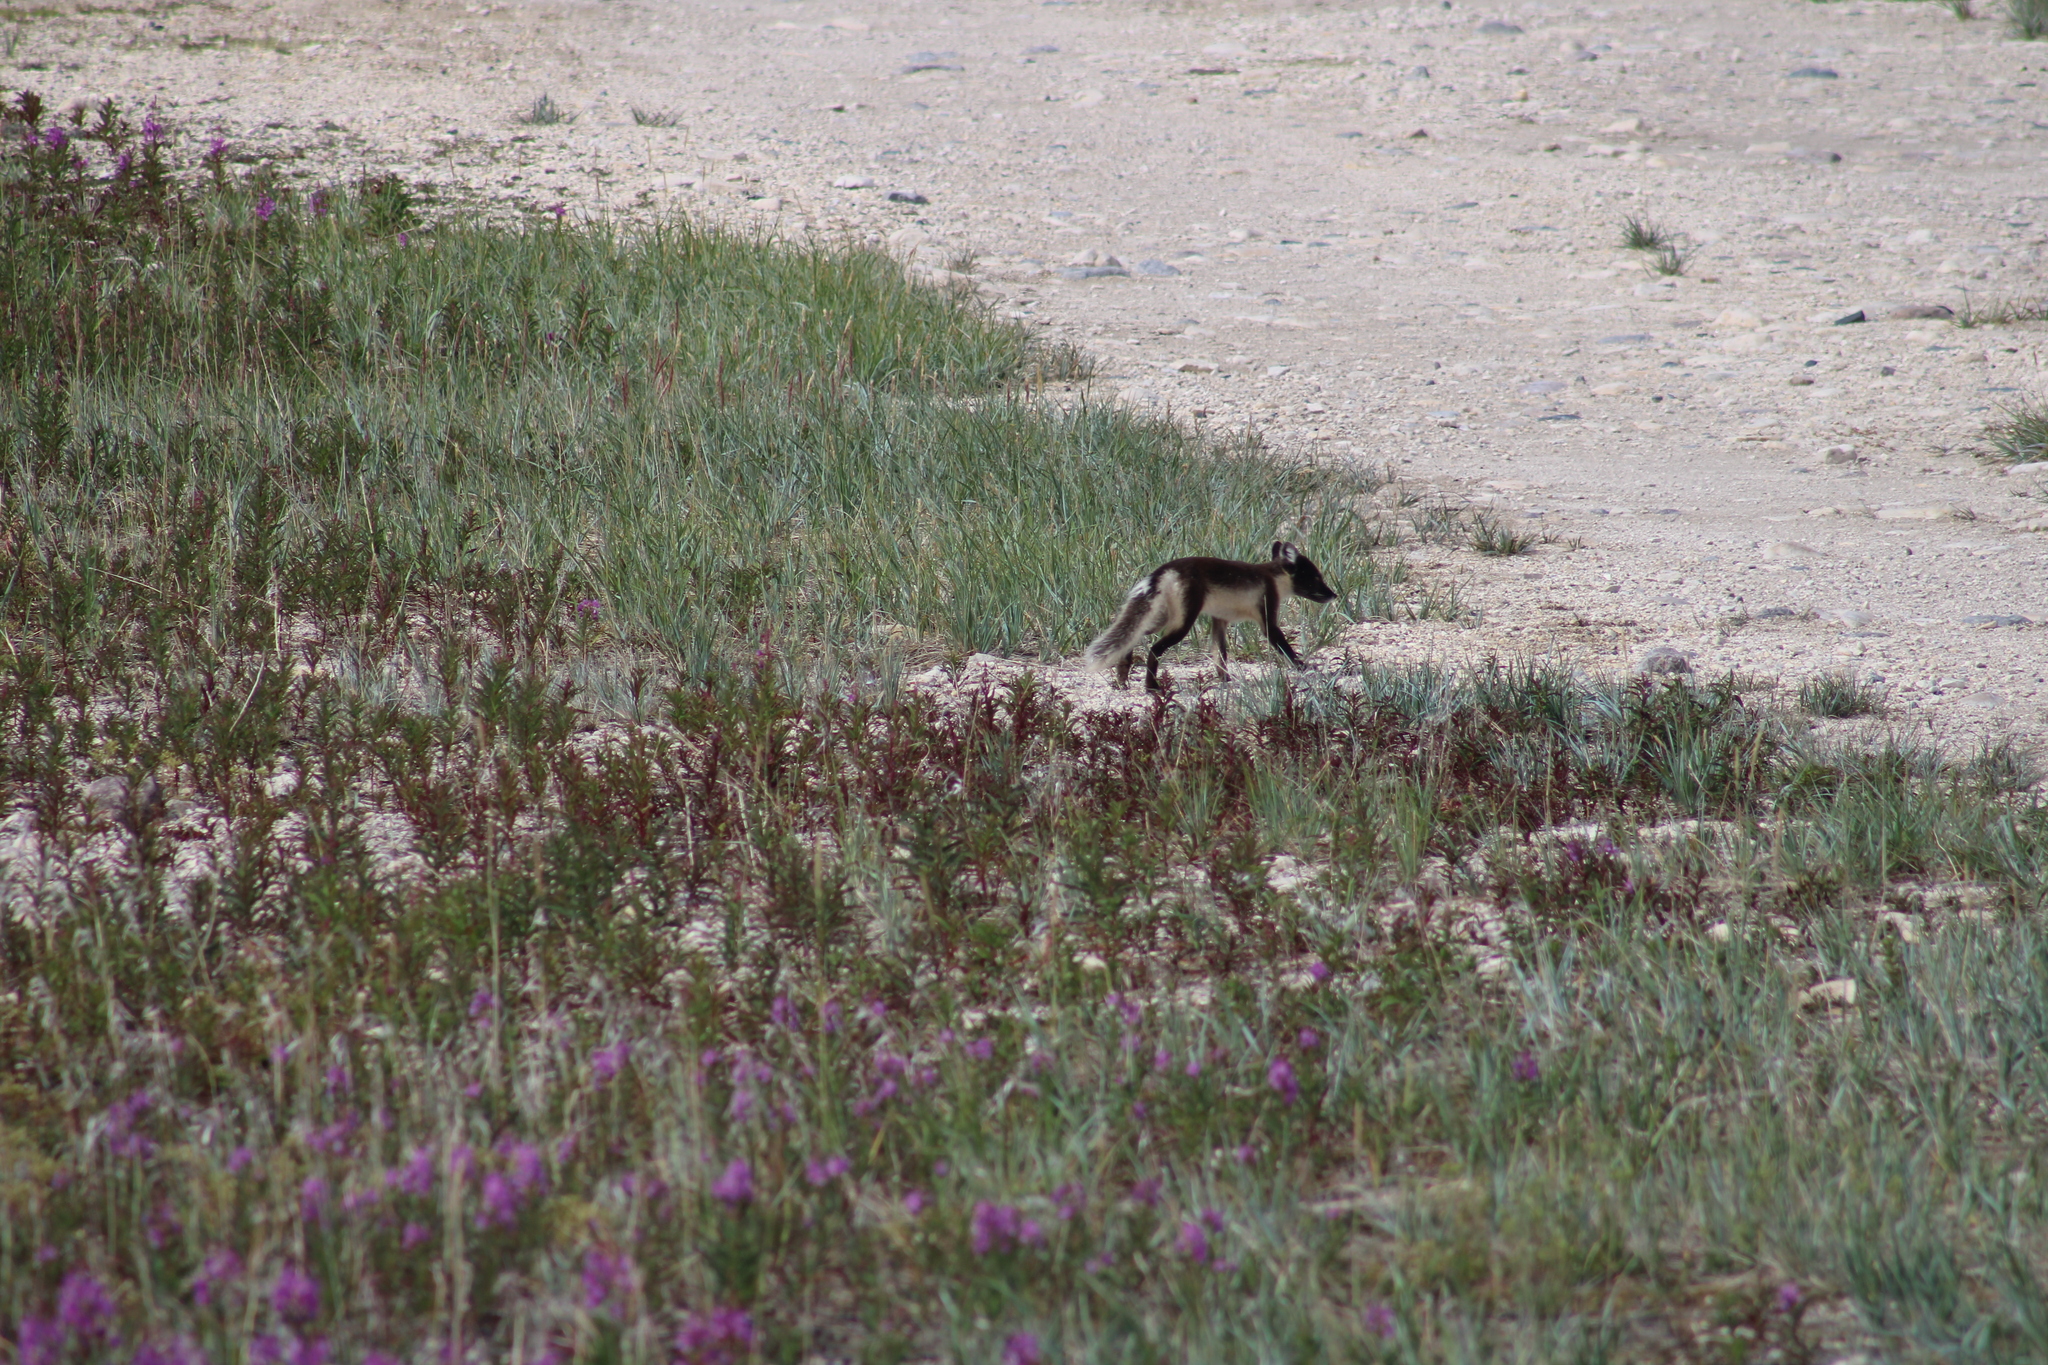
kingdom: Animalia
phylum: Chordata
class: Mammalia
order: Carnivora
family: Canidae
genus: Vulpes
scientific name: Vulpes lagopus
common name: Arctic fox
